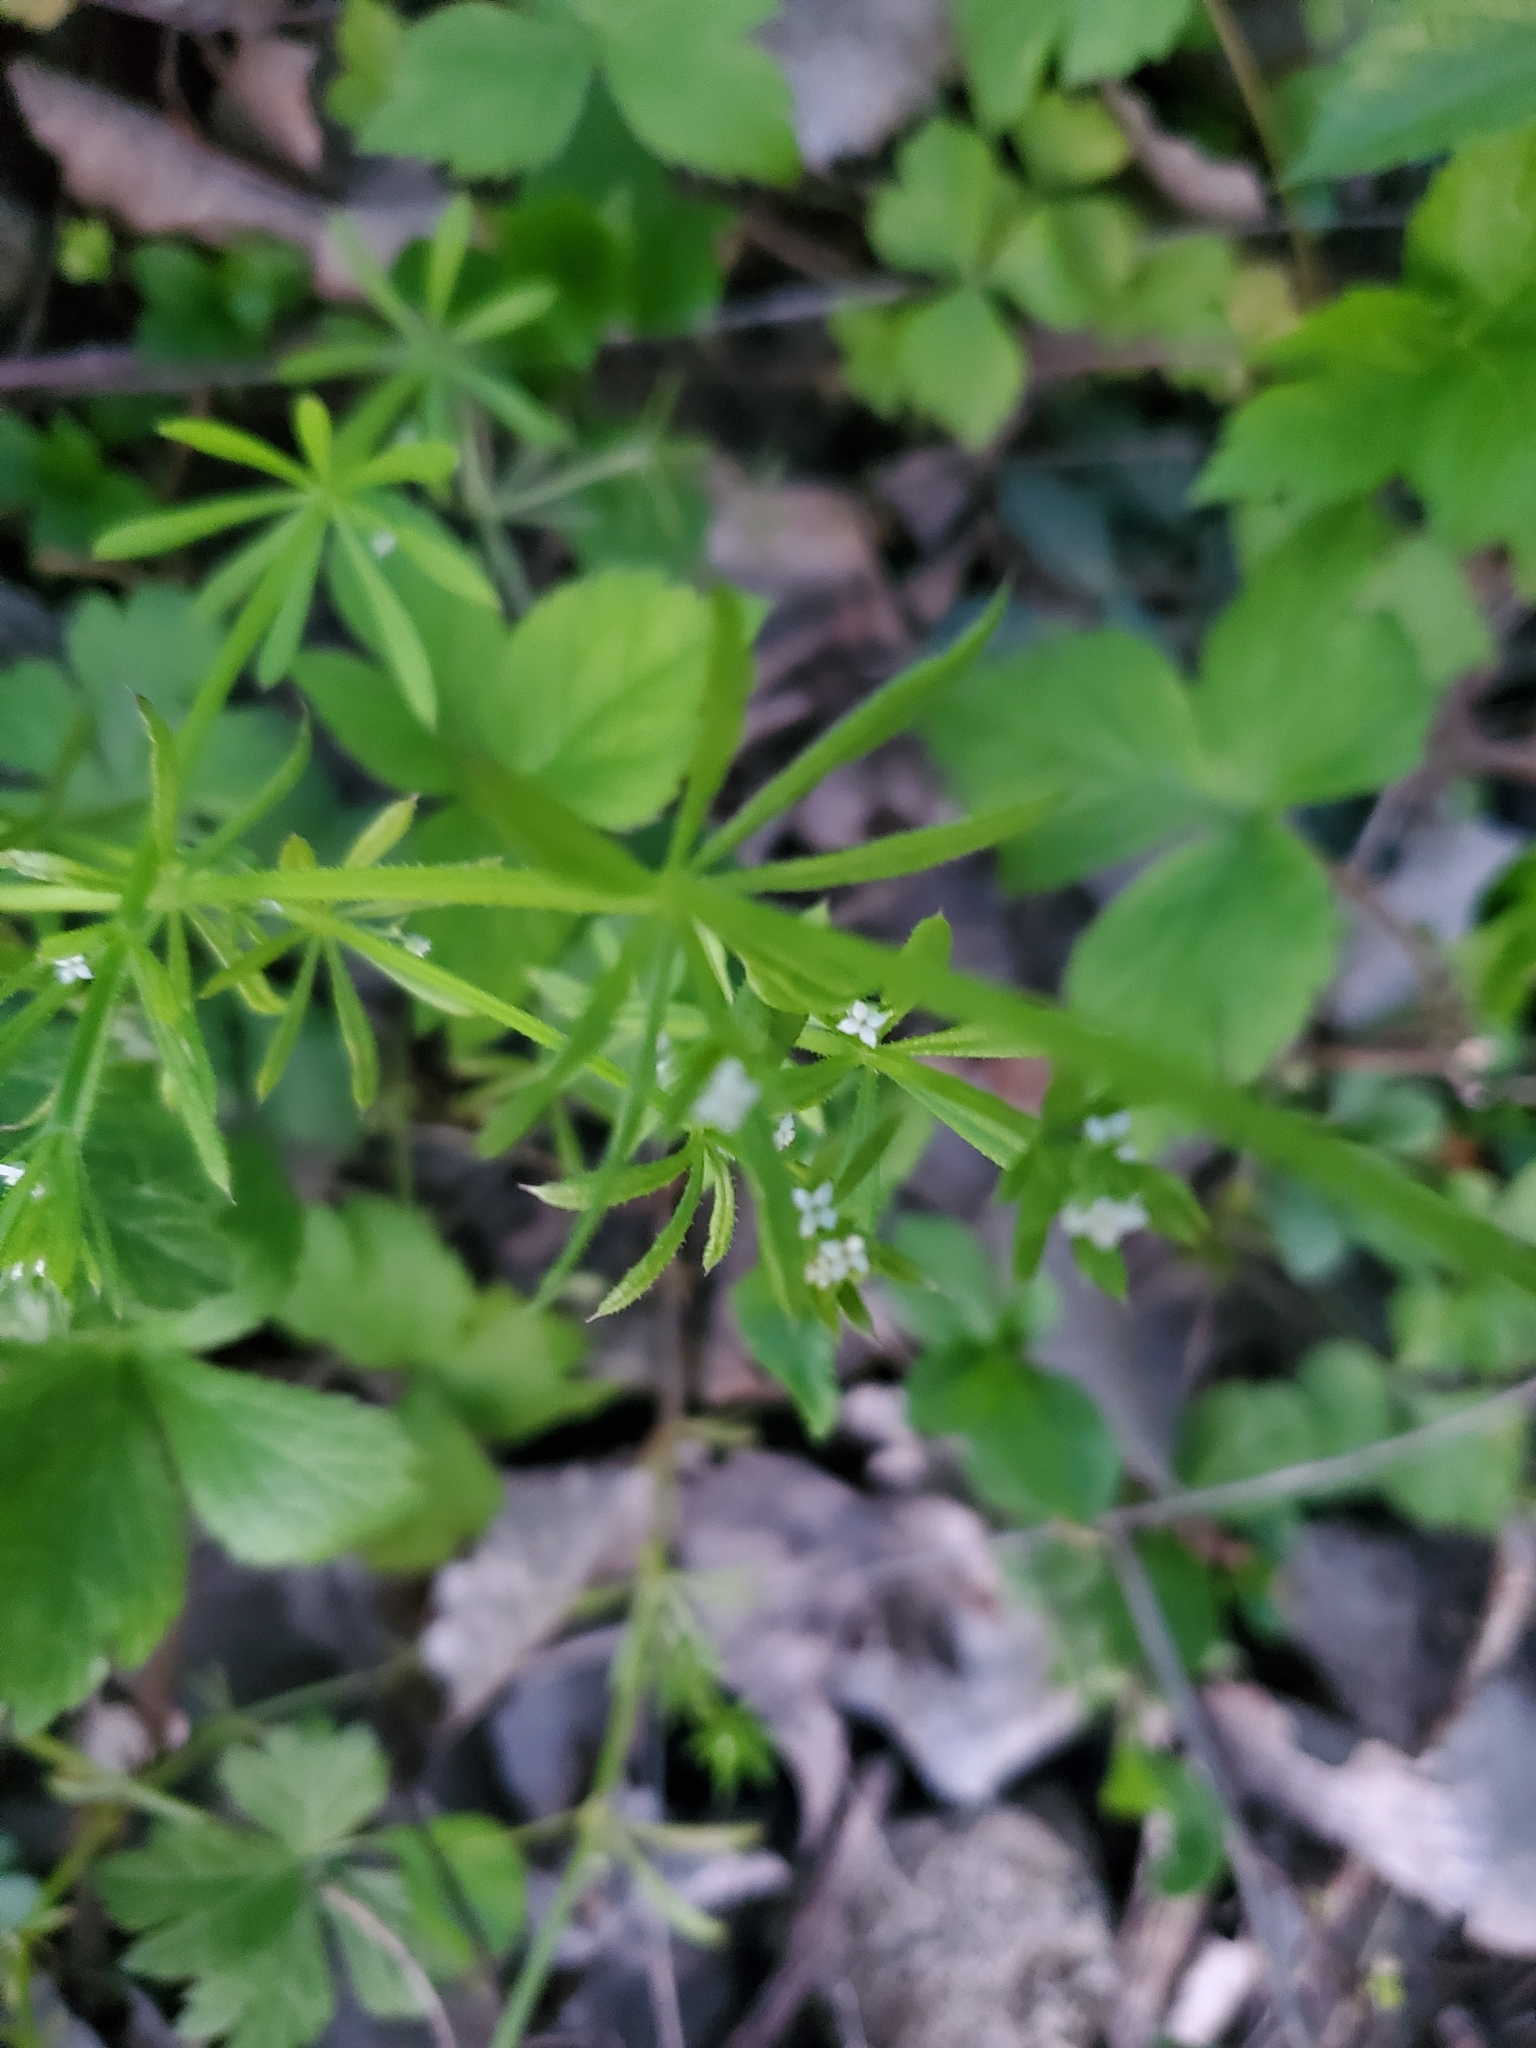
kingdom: Plantae
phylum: Tracheophyta
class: Magnoliopsida
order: Gentianales
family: Rubiaceae
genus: Galium
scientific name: Galium aparine
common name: Cleavers
